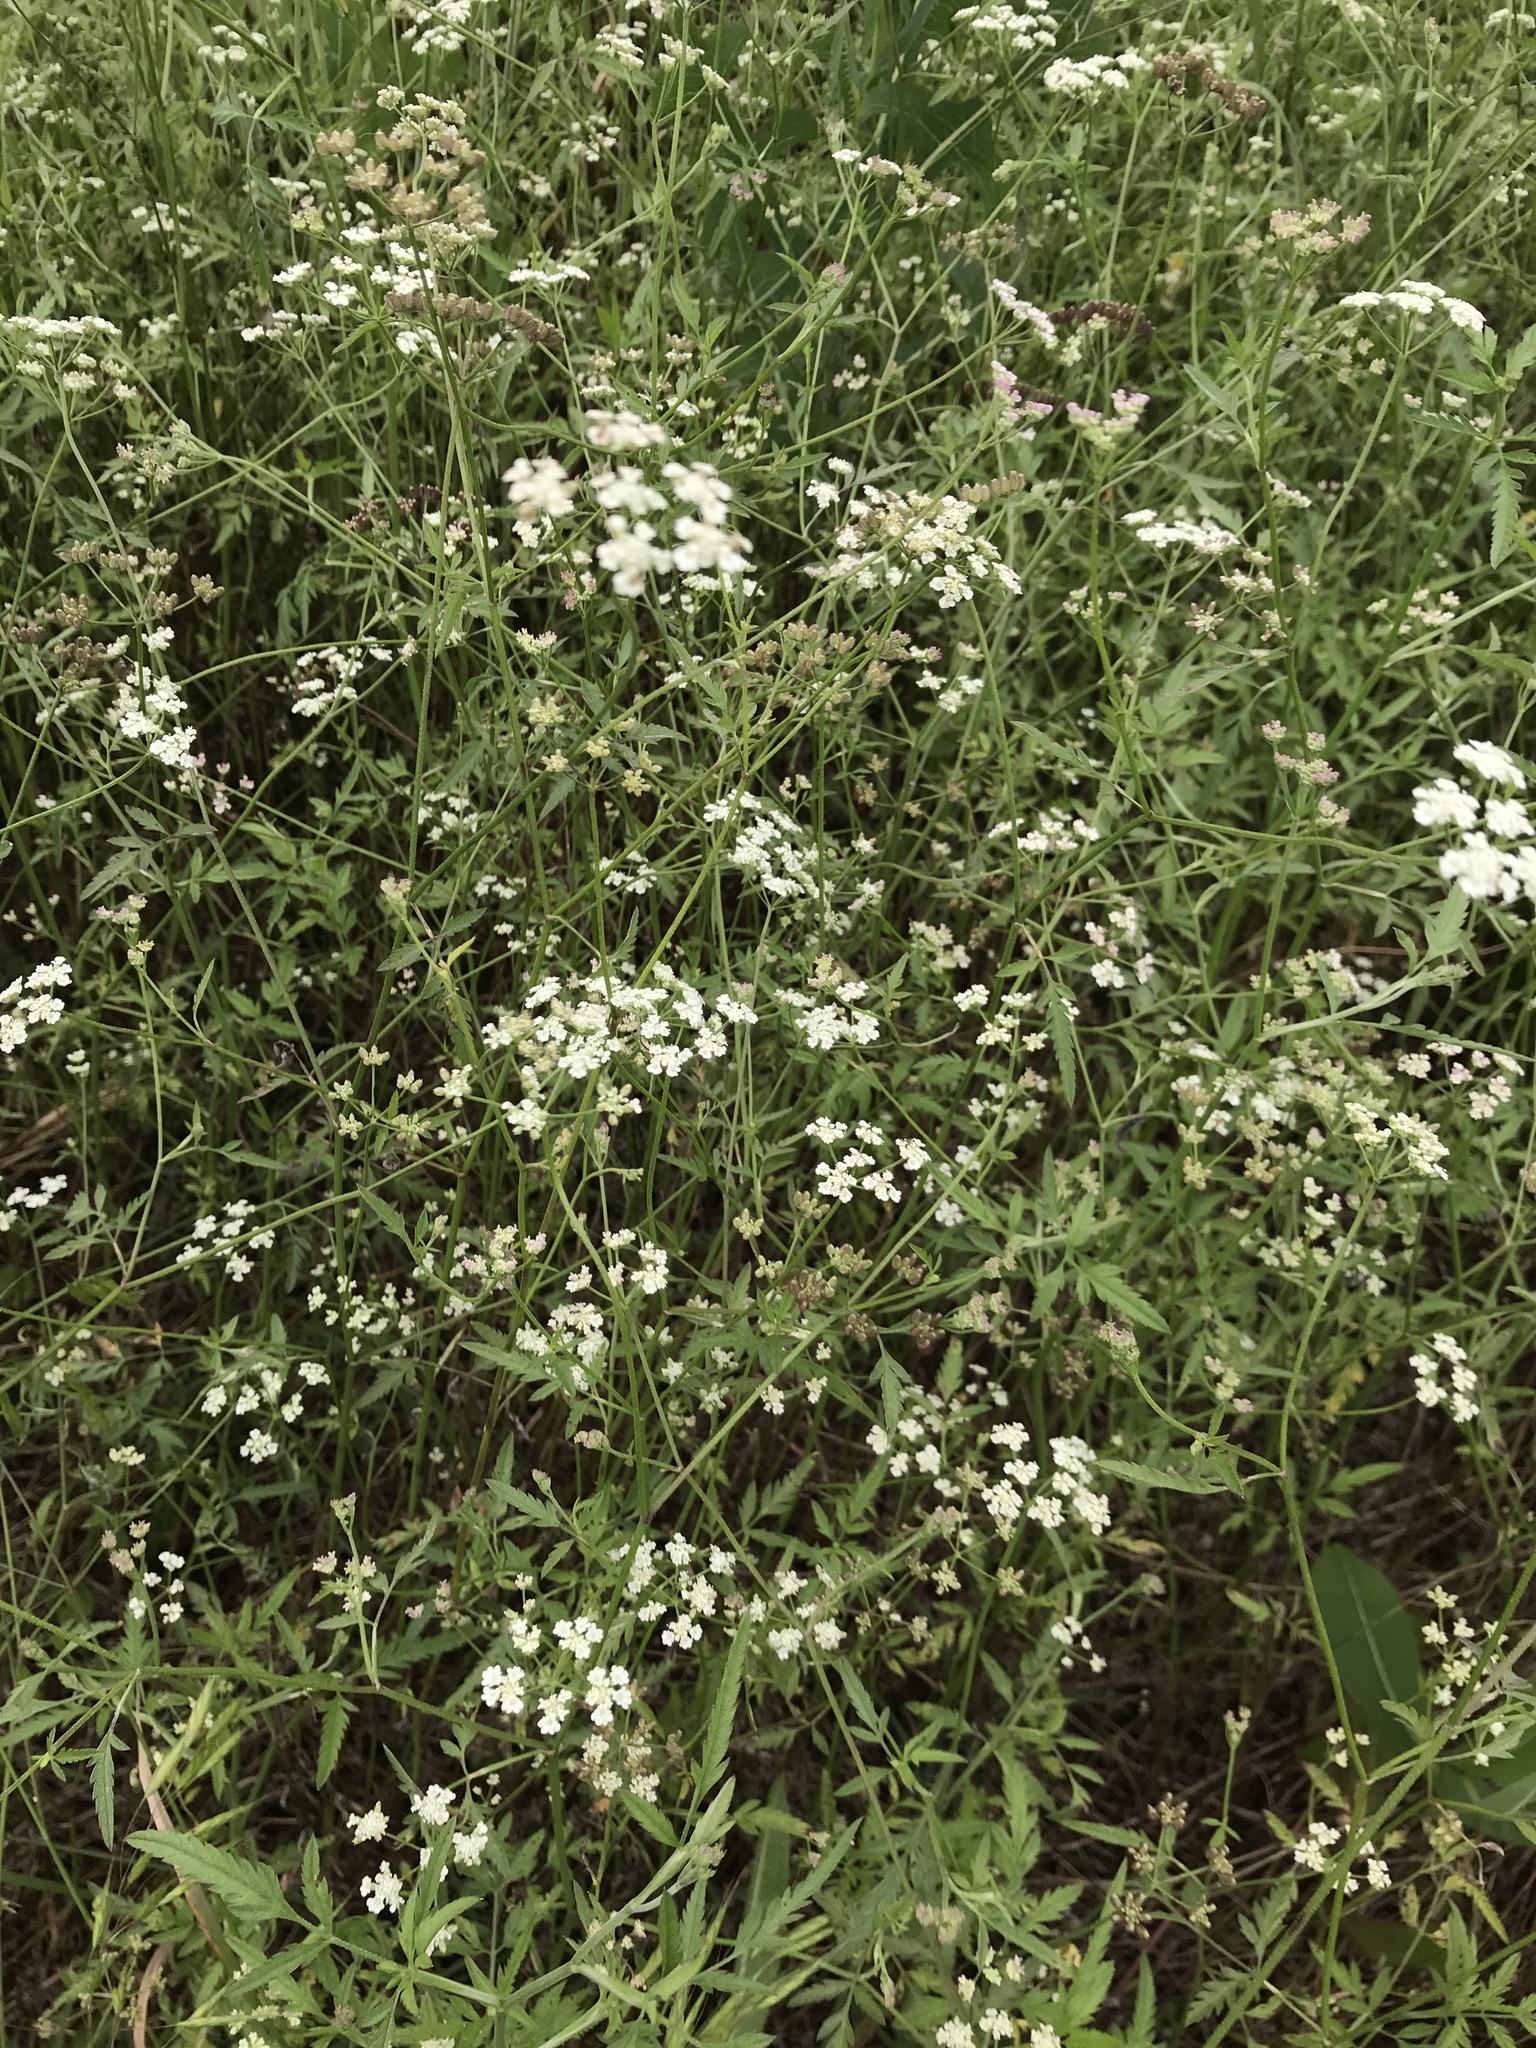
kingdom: Plantae
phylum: Tracheophyta
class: Magnoliopsida
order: Apiales
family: Apiaceae
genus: Torilis
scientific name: Torilis arvensis
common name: Spreading hedge-parsley
